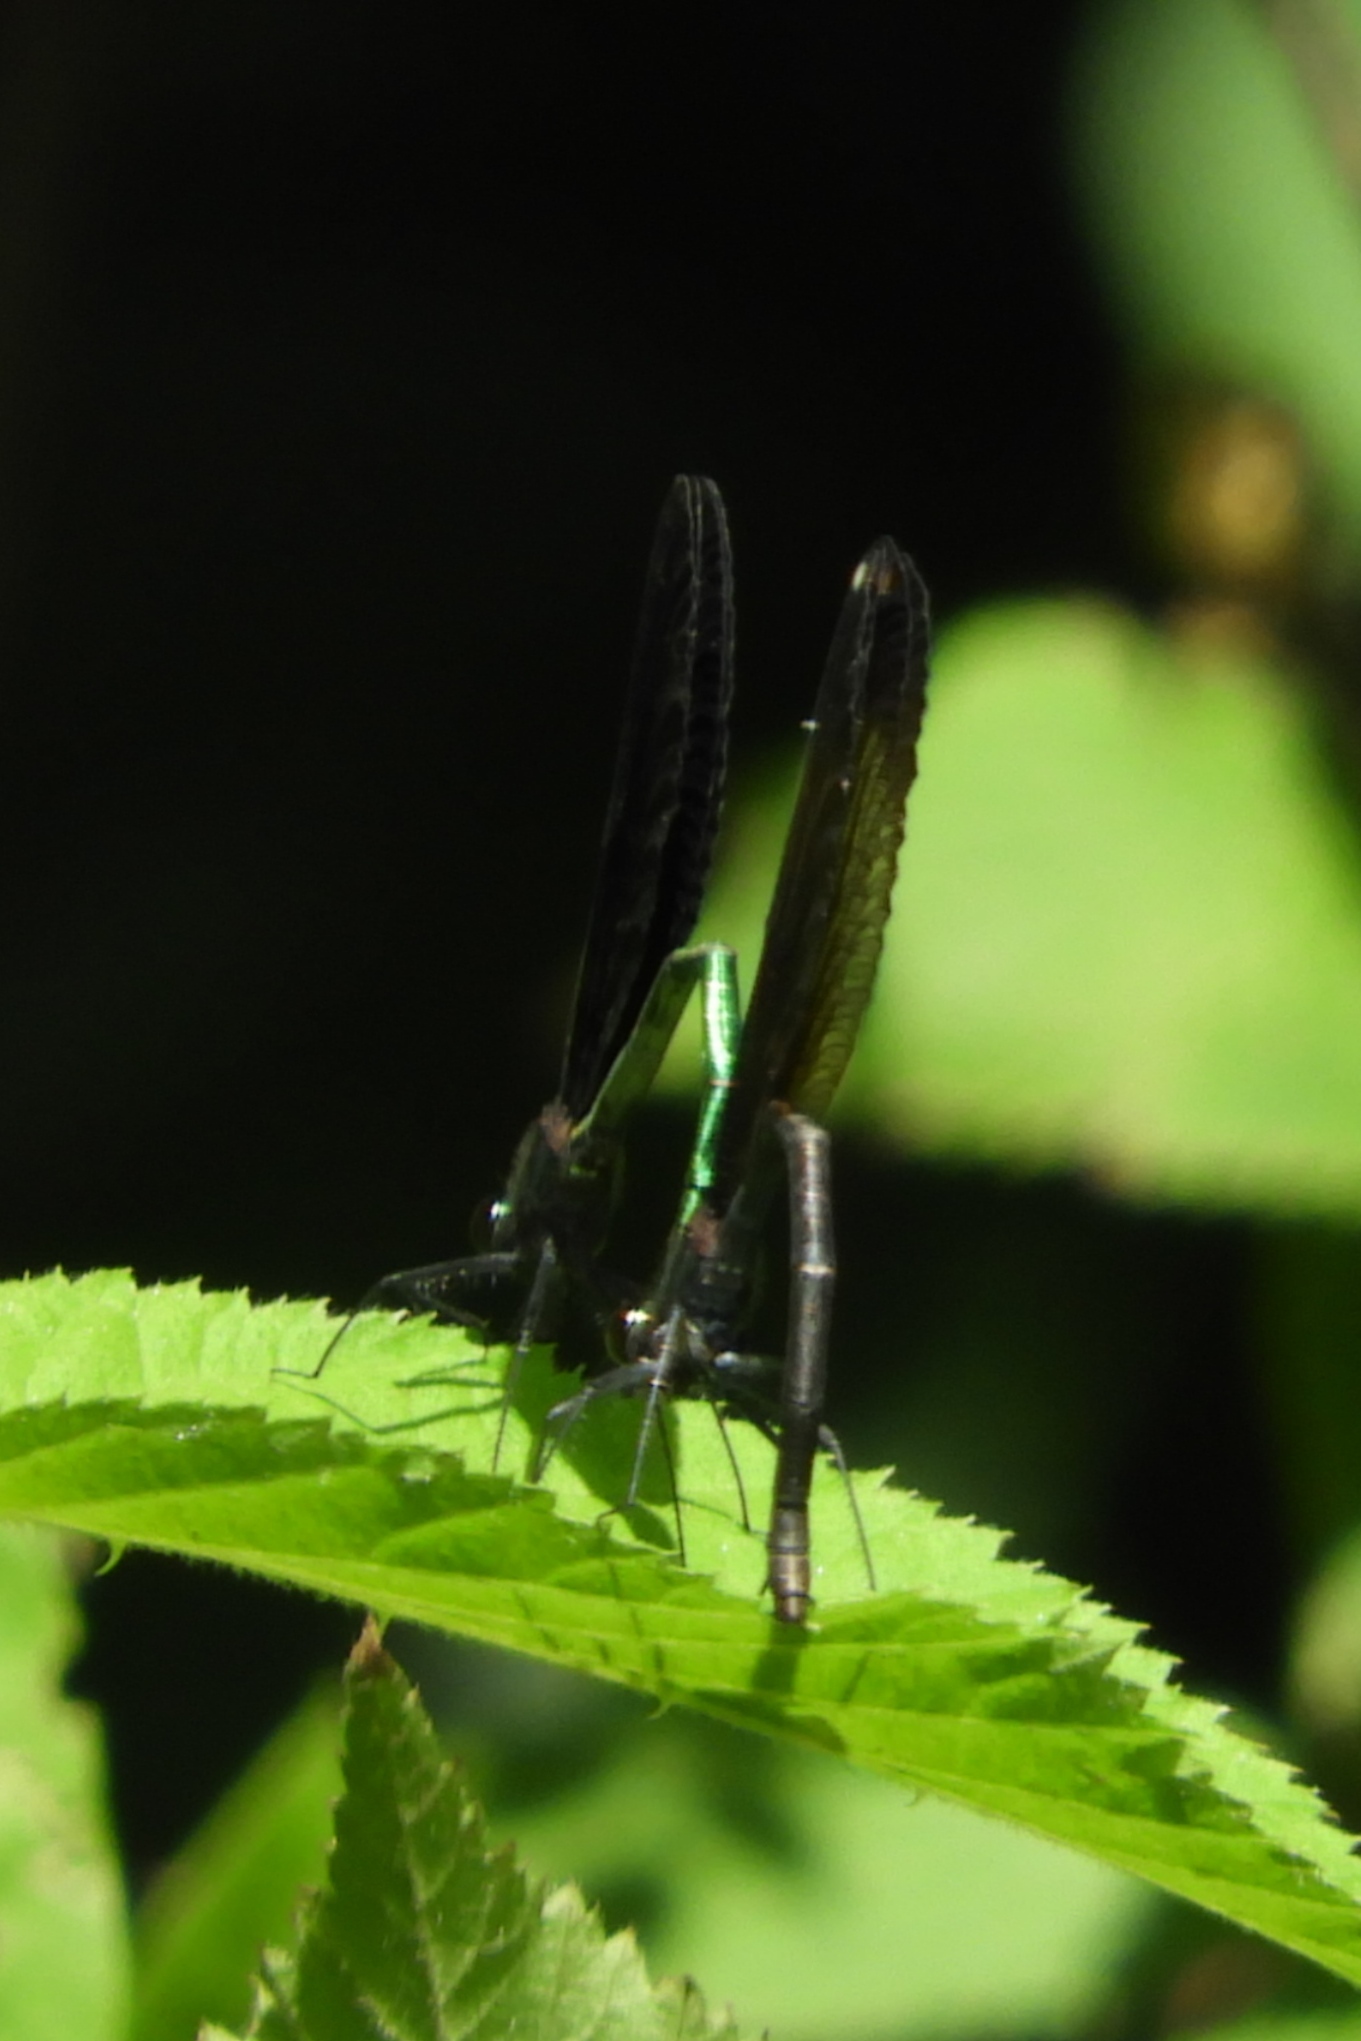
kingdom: Animalia
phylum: Arthropoda
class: Insecta
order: Odonata
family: Calopterygidae
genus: Calopteryx
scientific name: Calopteryx maculata
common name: Ebony jewelwing
